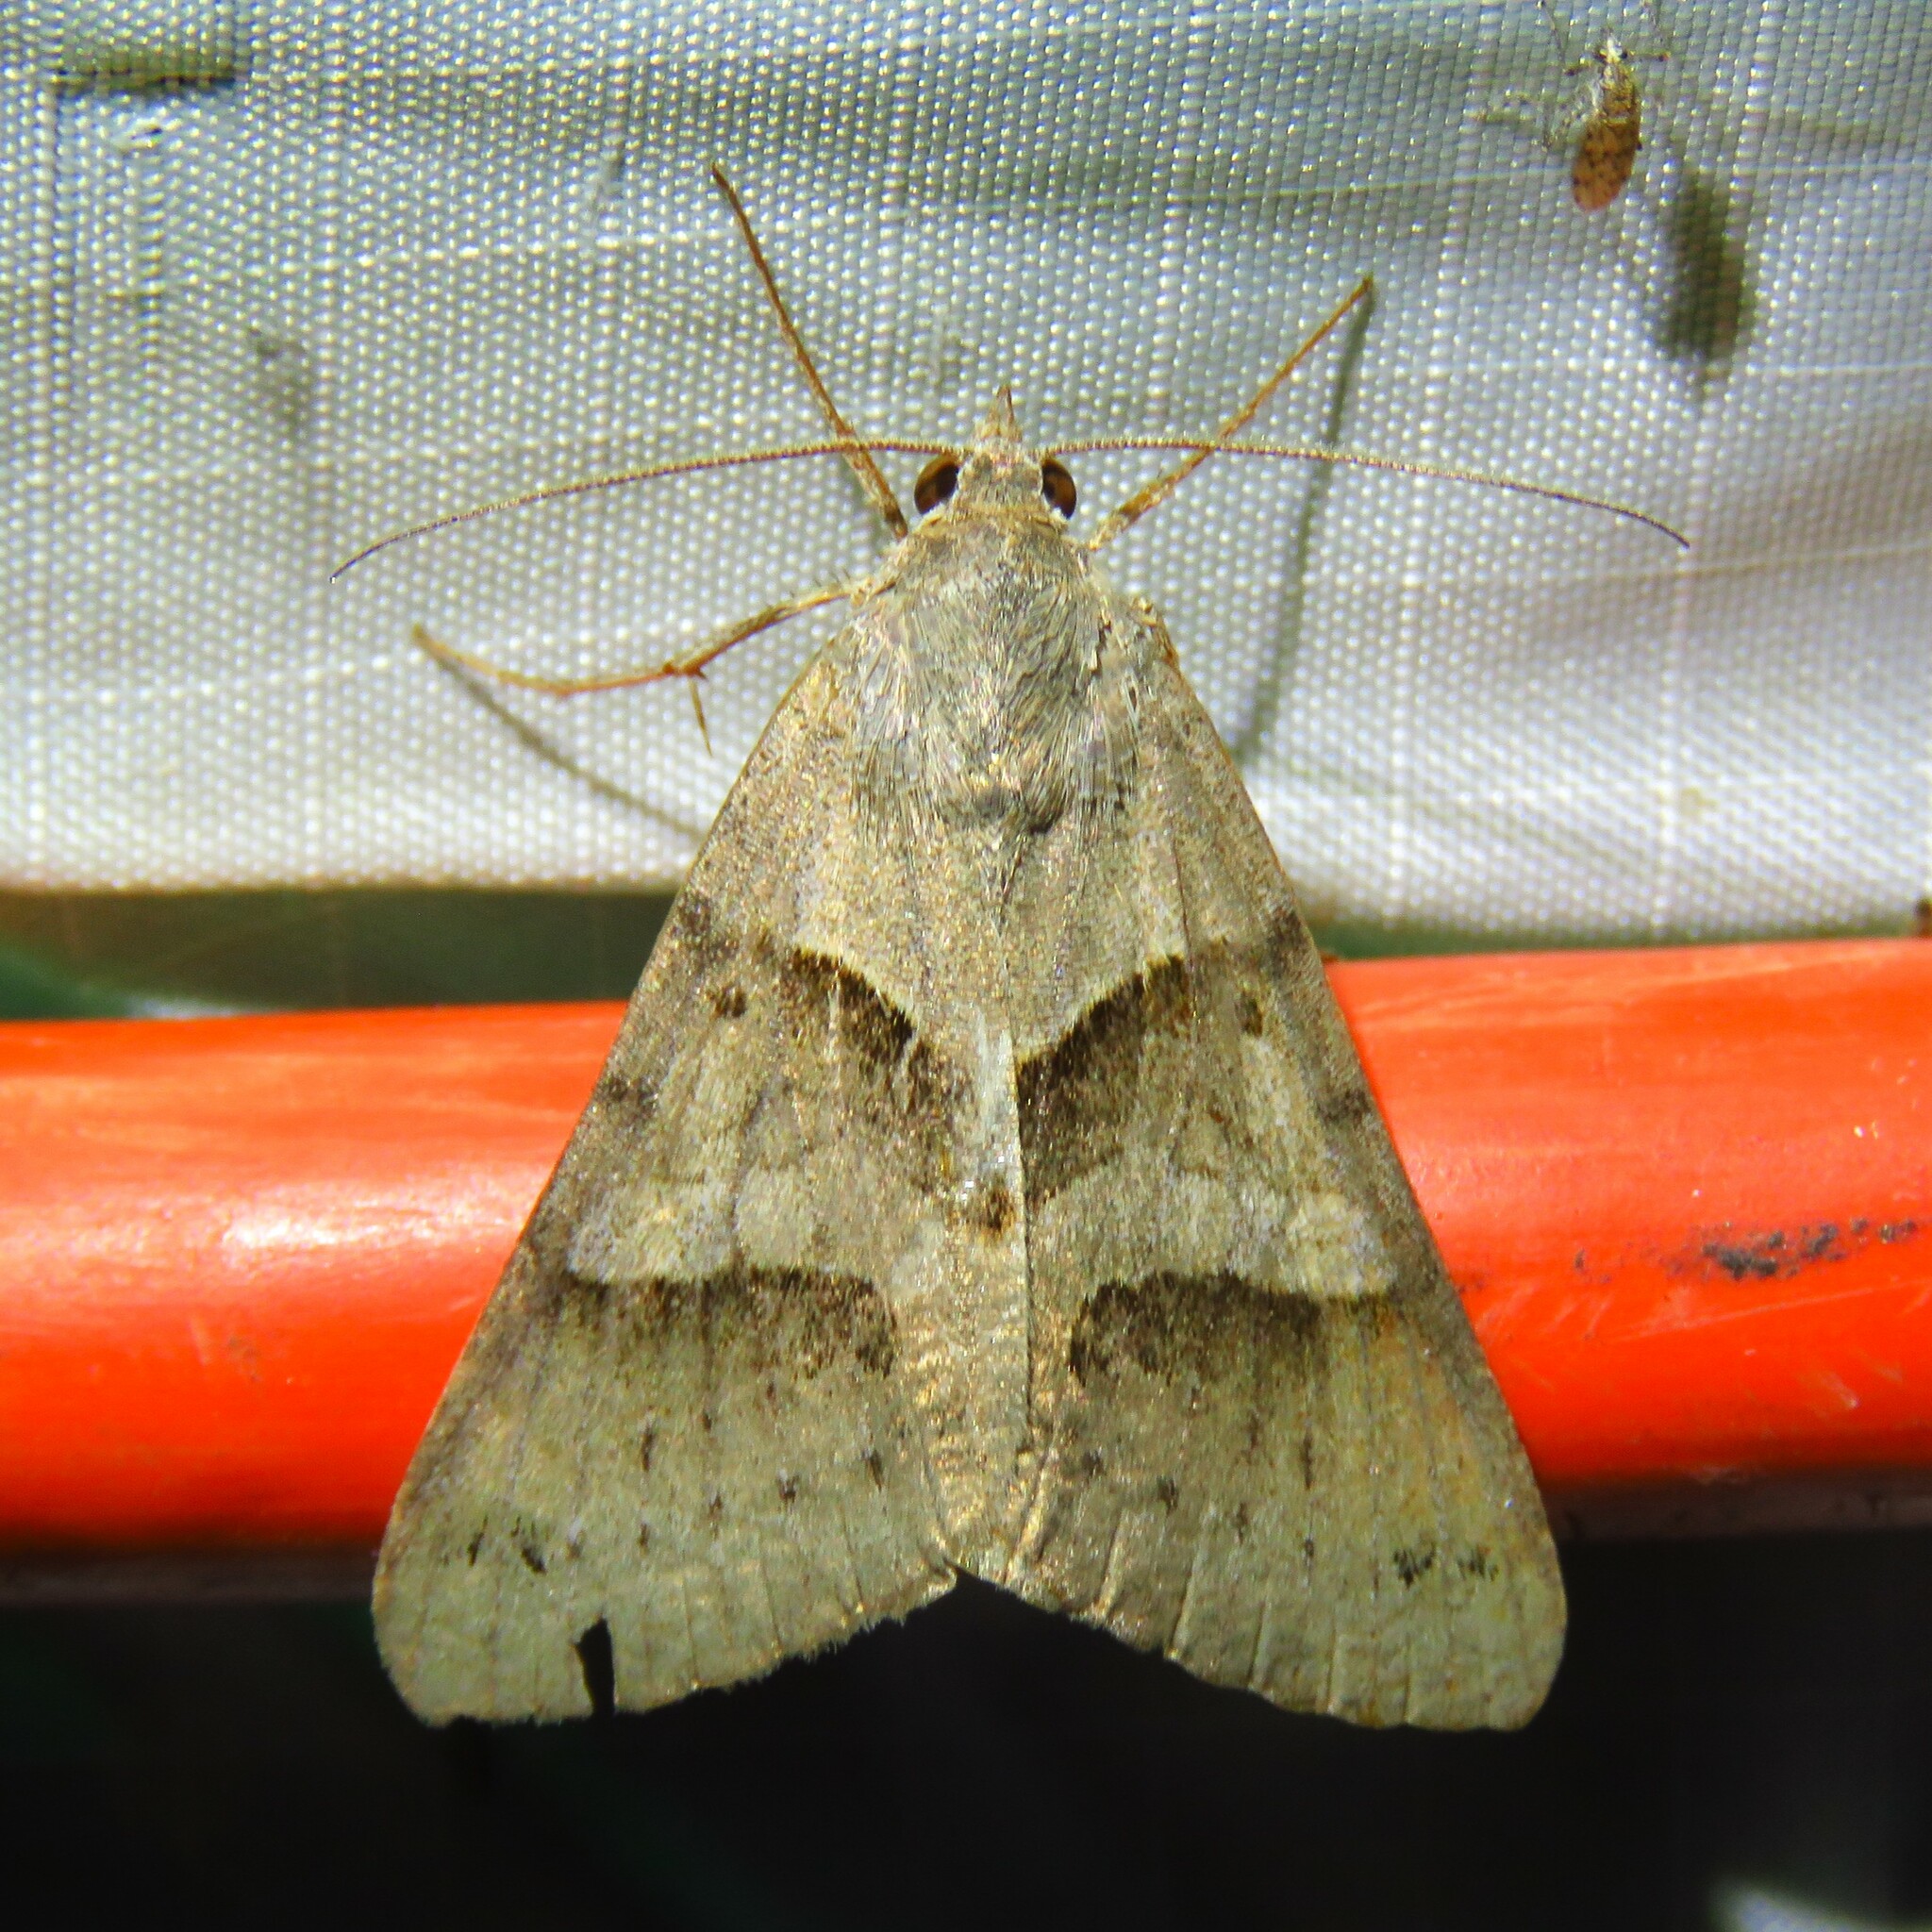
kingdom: Animalia
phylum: Arthropoda
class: Insecta
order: Lepidoptera
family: Erebidae
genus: Caenurgina
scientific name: Caenurgina erechtea
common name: Forage looper moth
